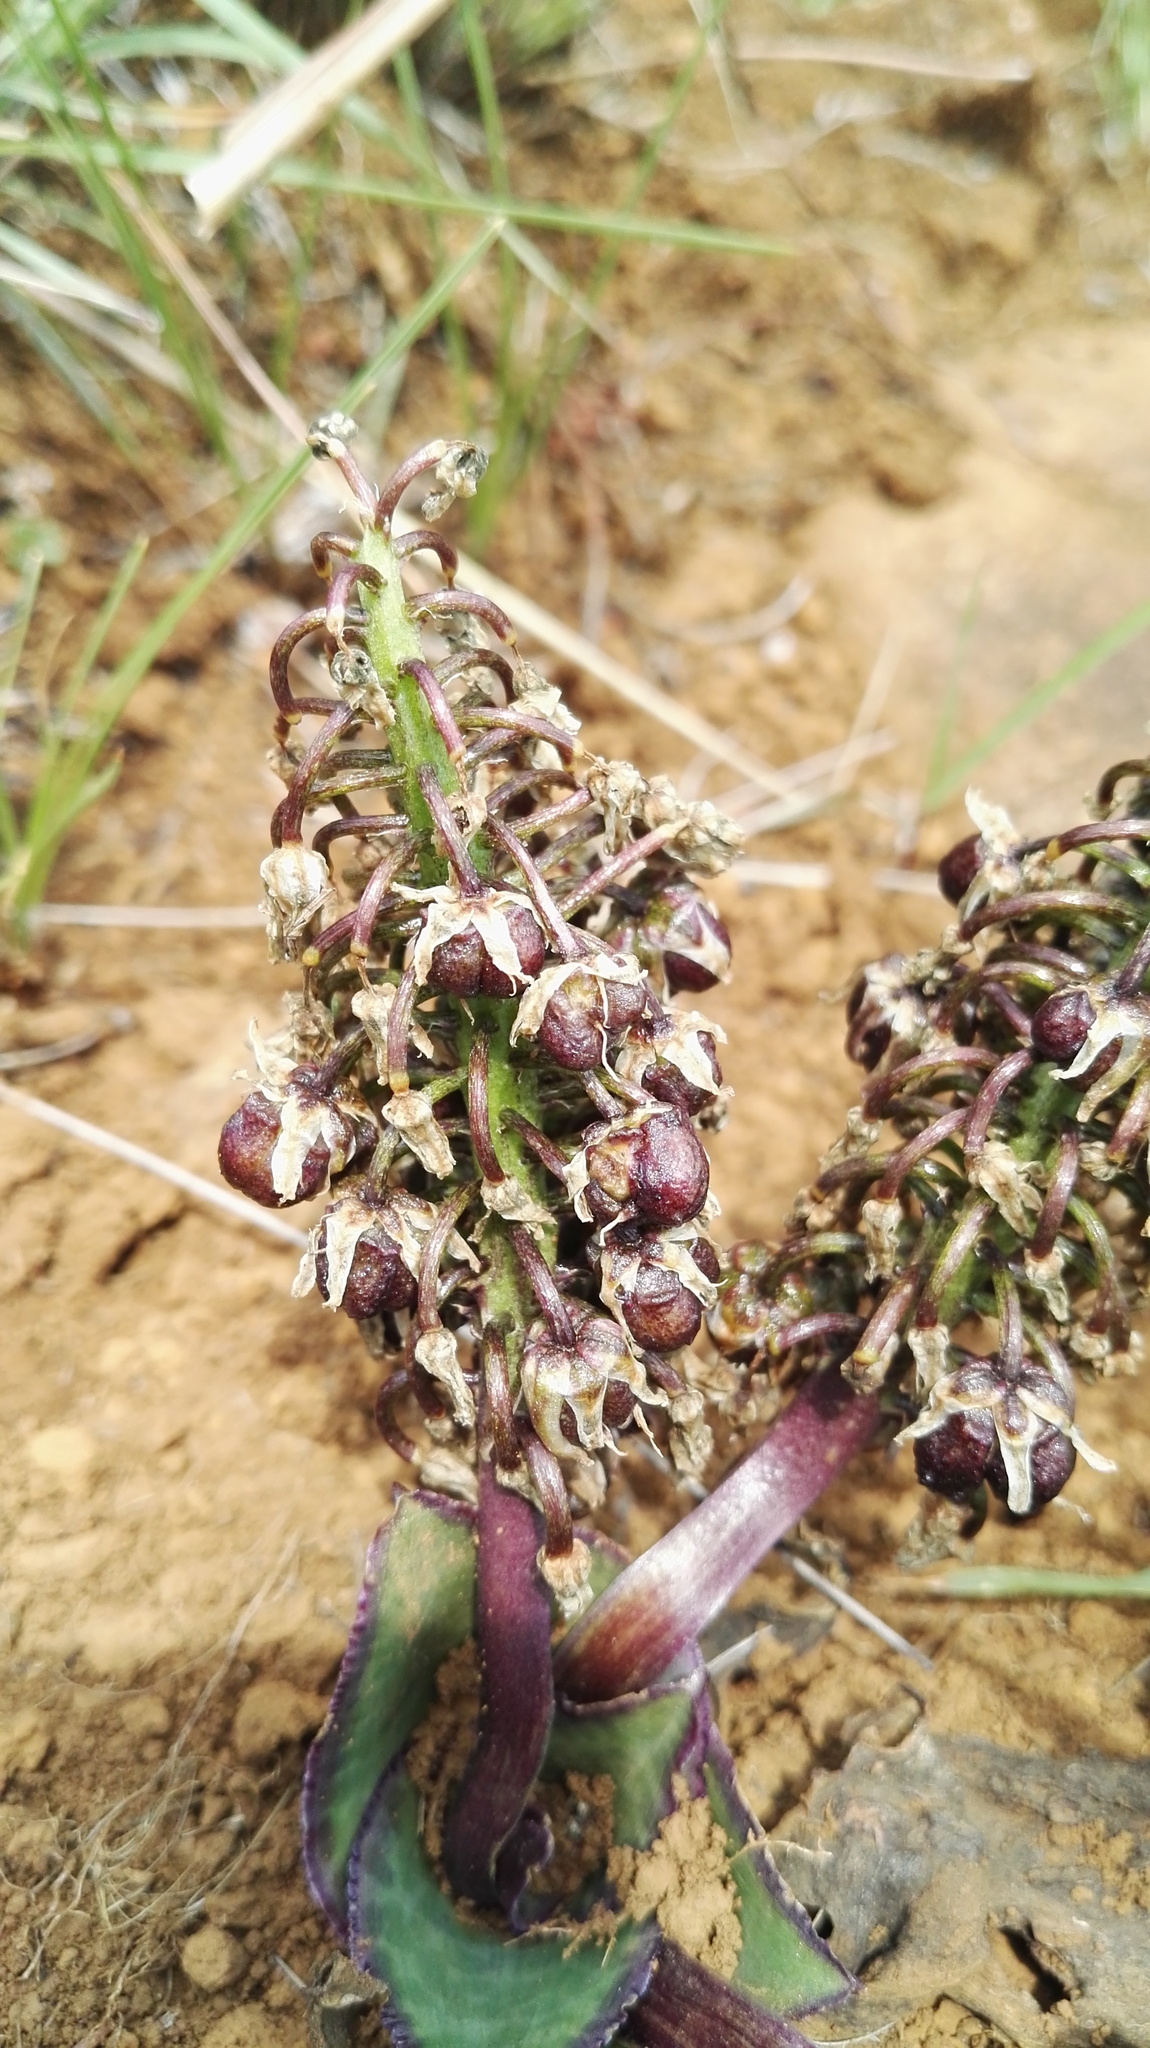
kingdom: Plantae
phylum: Tracheophyta
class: Liliopsida
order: Asparagales
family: Asparagaceae
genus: Ledebouria
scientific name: Ledebouria ovatifolia
